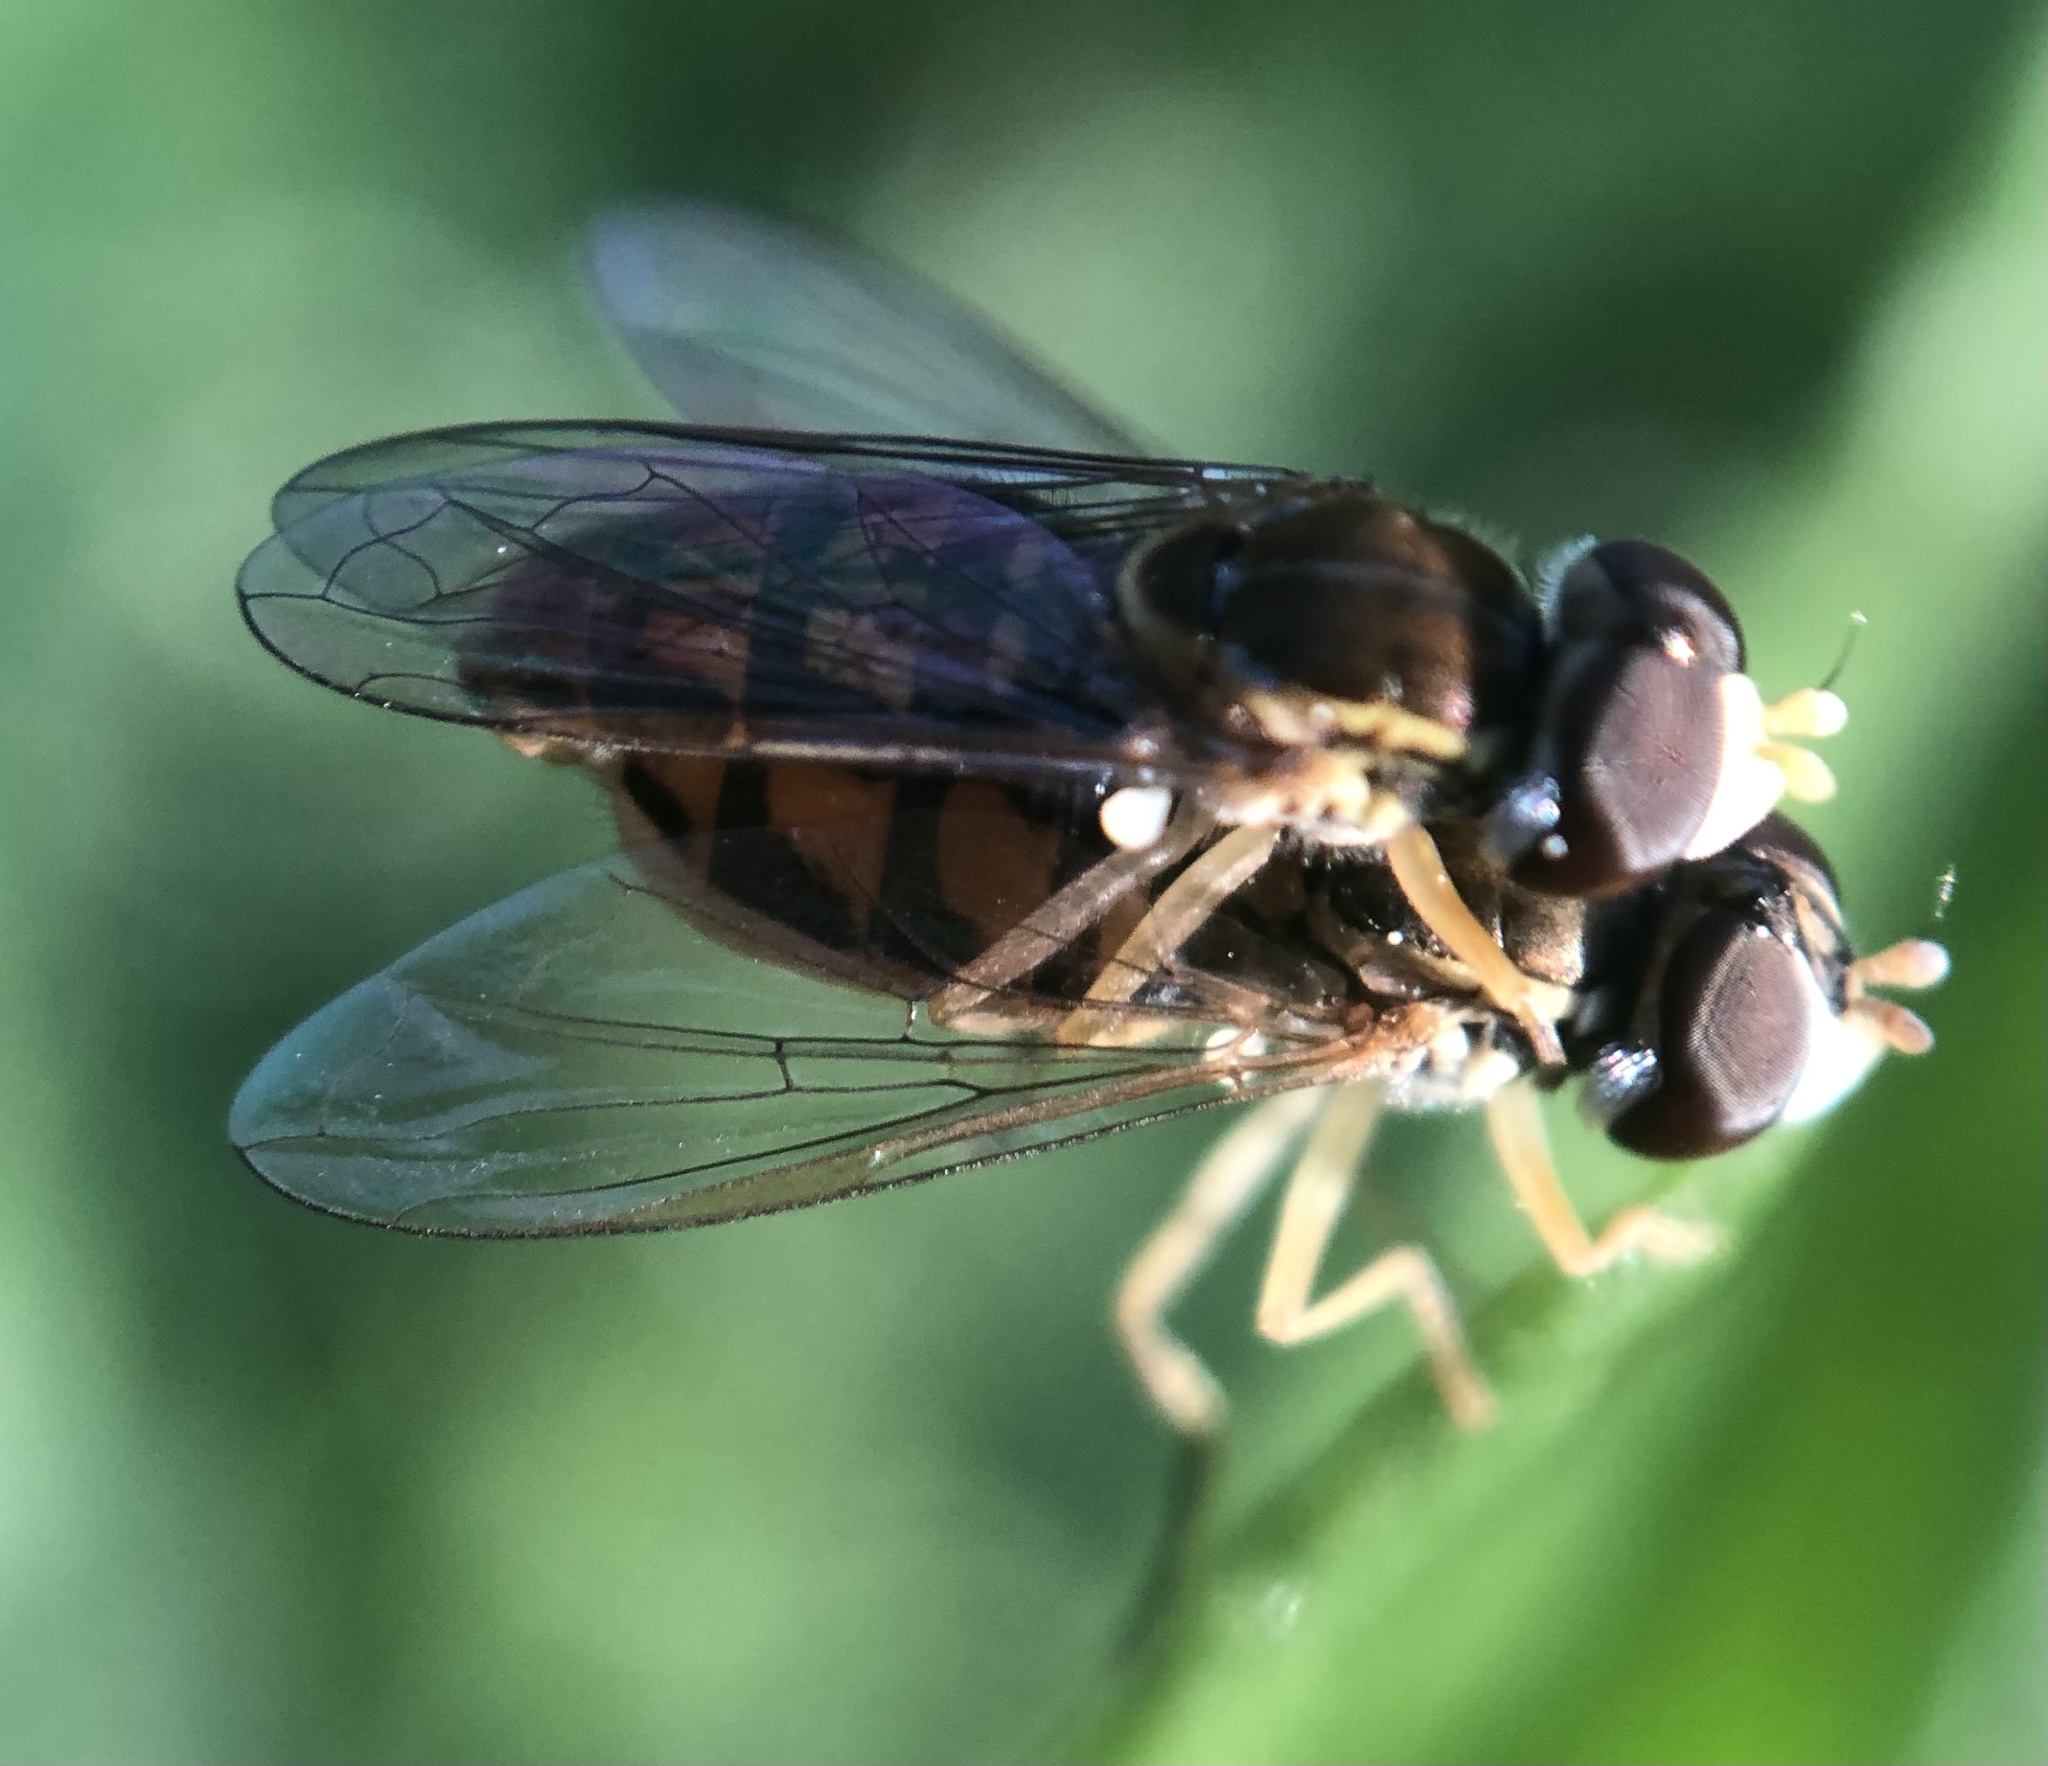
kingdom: Animalia
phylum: Arthropoda
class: Insecta
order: Diptera
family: Syrphidae
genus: Toxomerus
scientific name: Toxomerus marginatus
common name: Syrphid fly
